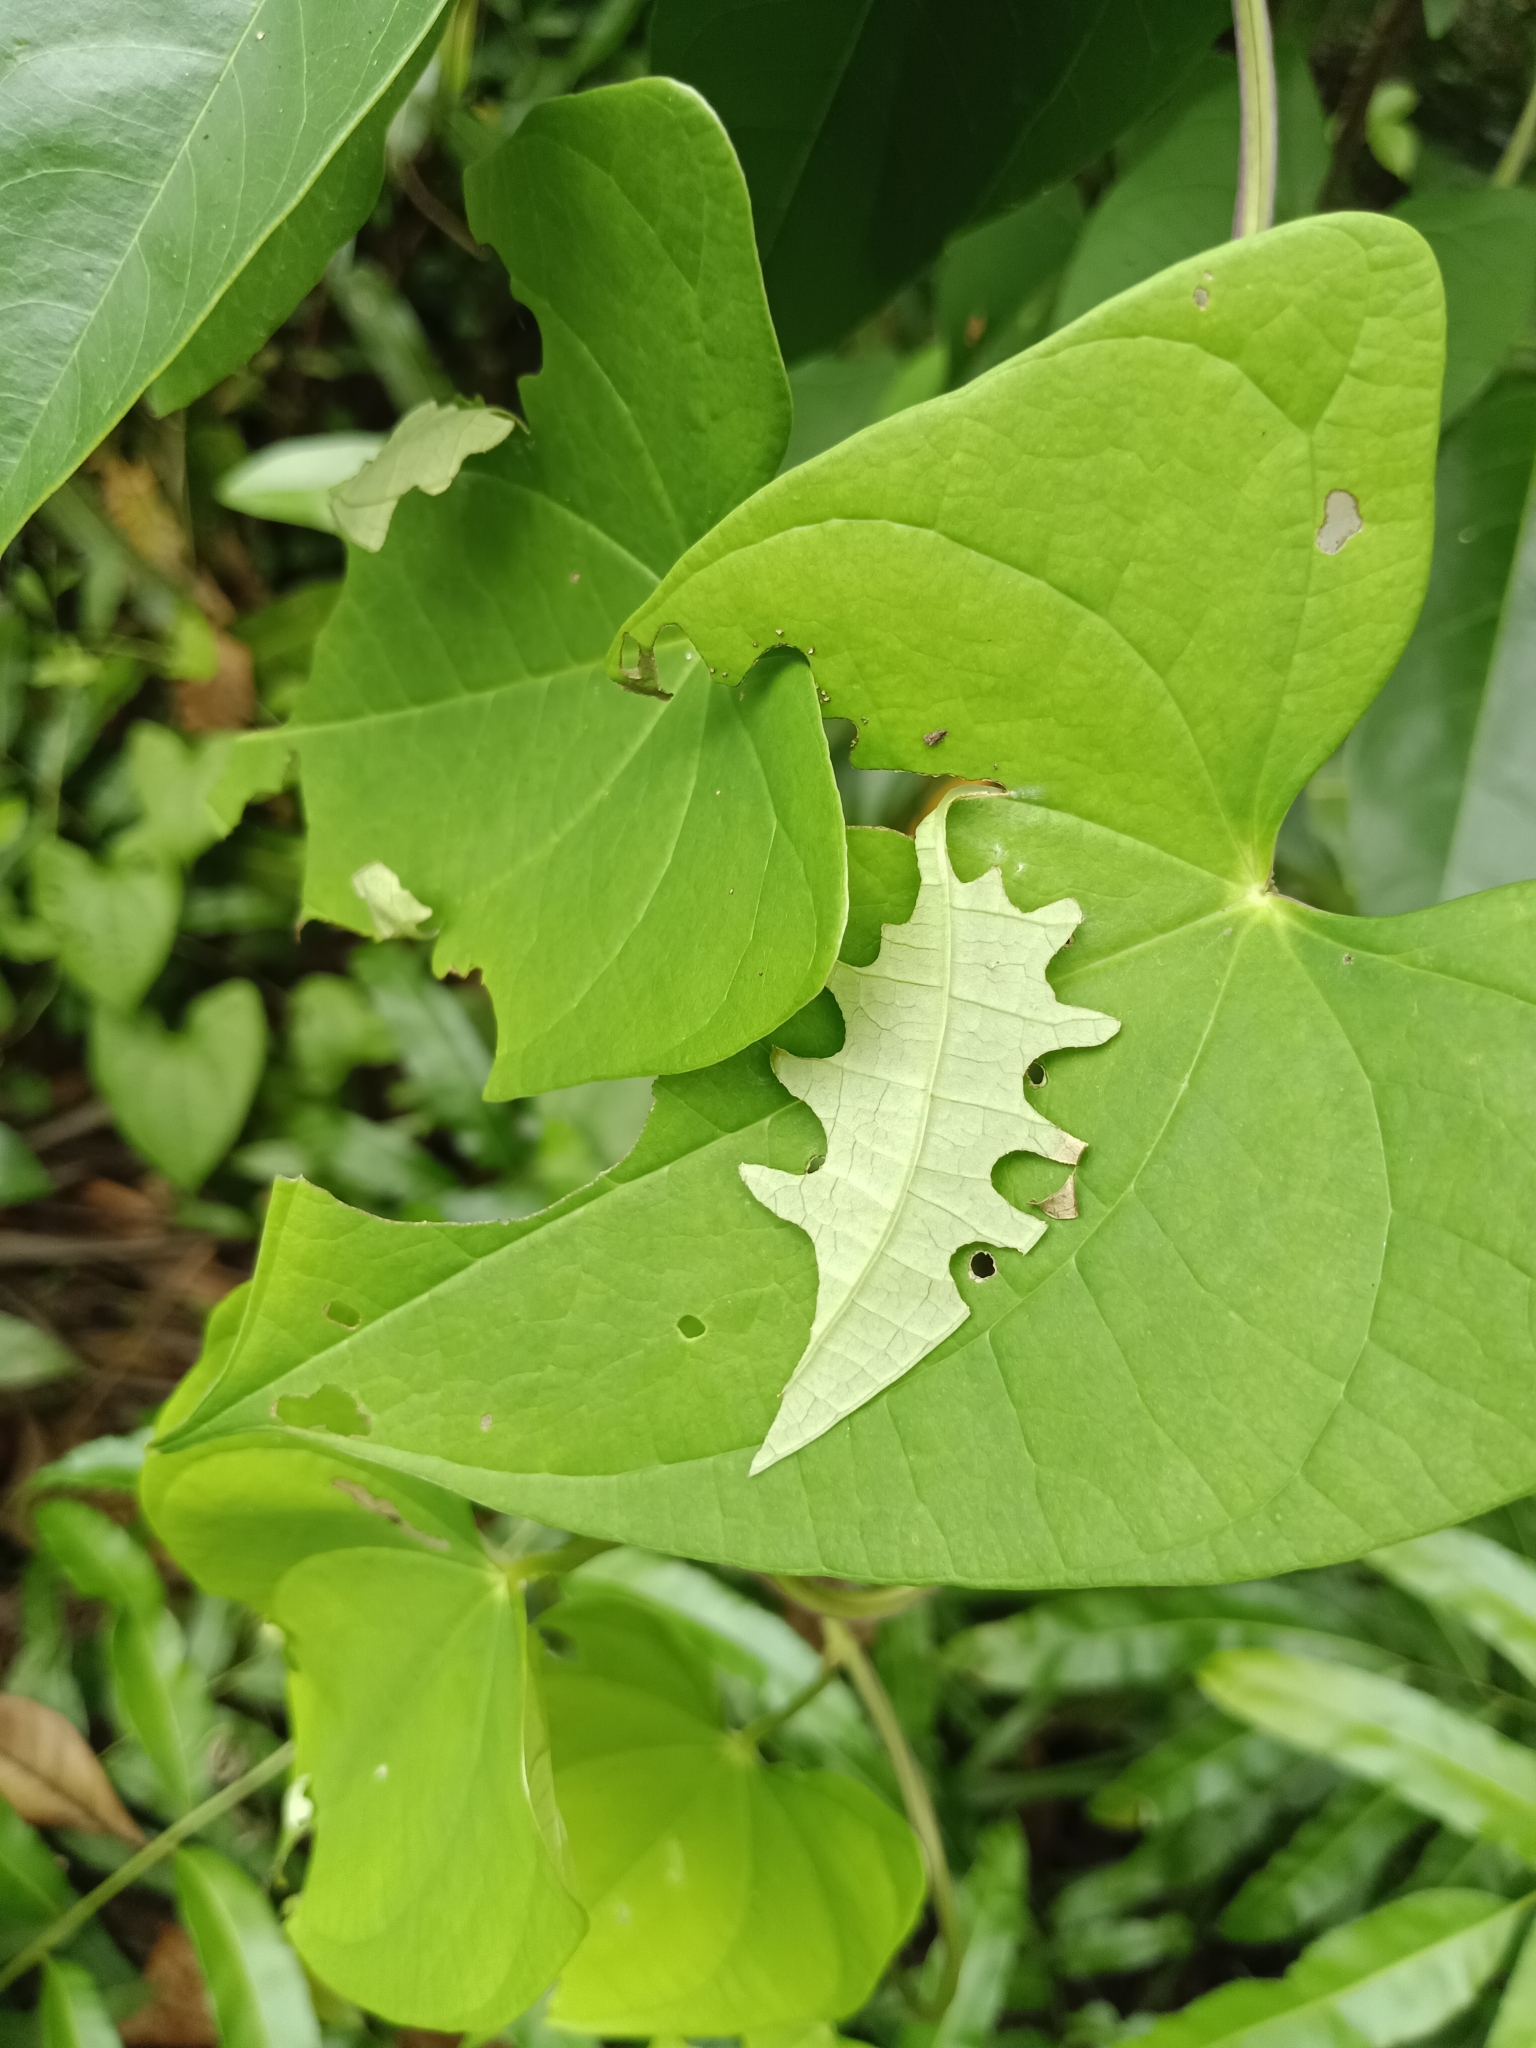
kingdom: Animalia
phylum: Arthropoda
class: Insecta
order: Lepidoptera
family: Hesperiidae
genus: Tagiades
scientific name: Tagiades litigiosa
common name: Water snow flat
